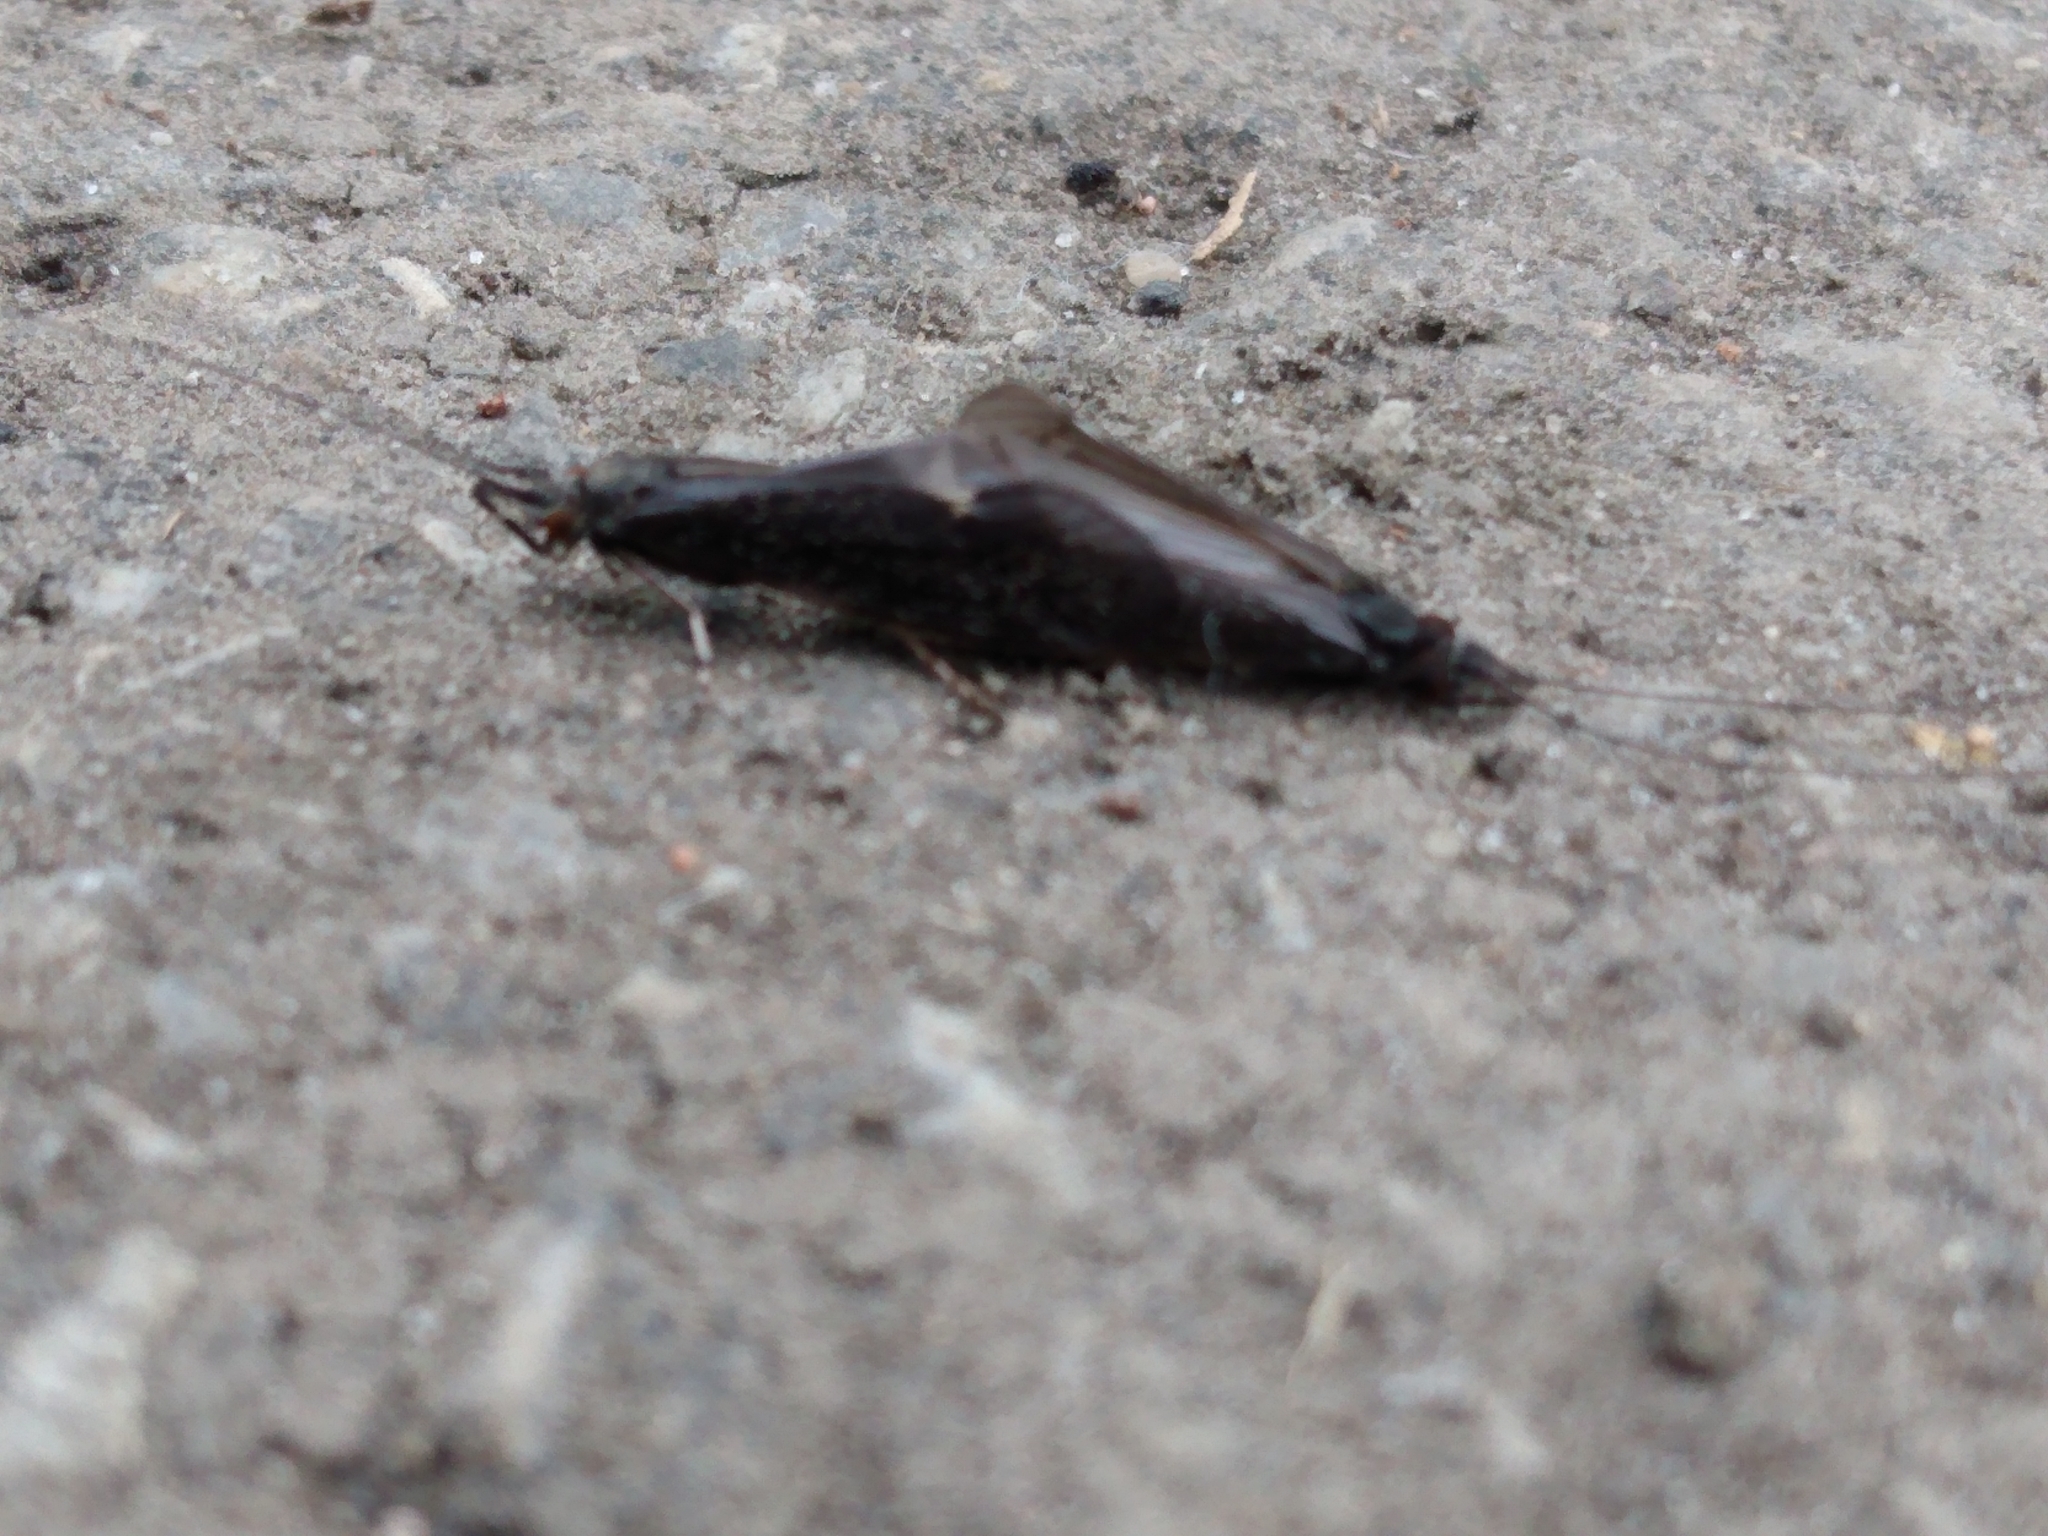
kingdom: Animalia
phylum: Arthropoda
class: Insecta
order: Trichoptera
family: Leptoceridae
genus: Mystacides
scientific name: Mystacides sepulchralis
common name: Black dancer caddisfly
